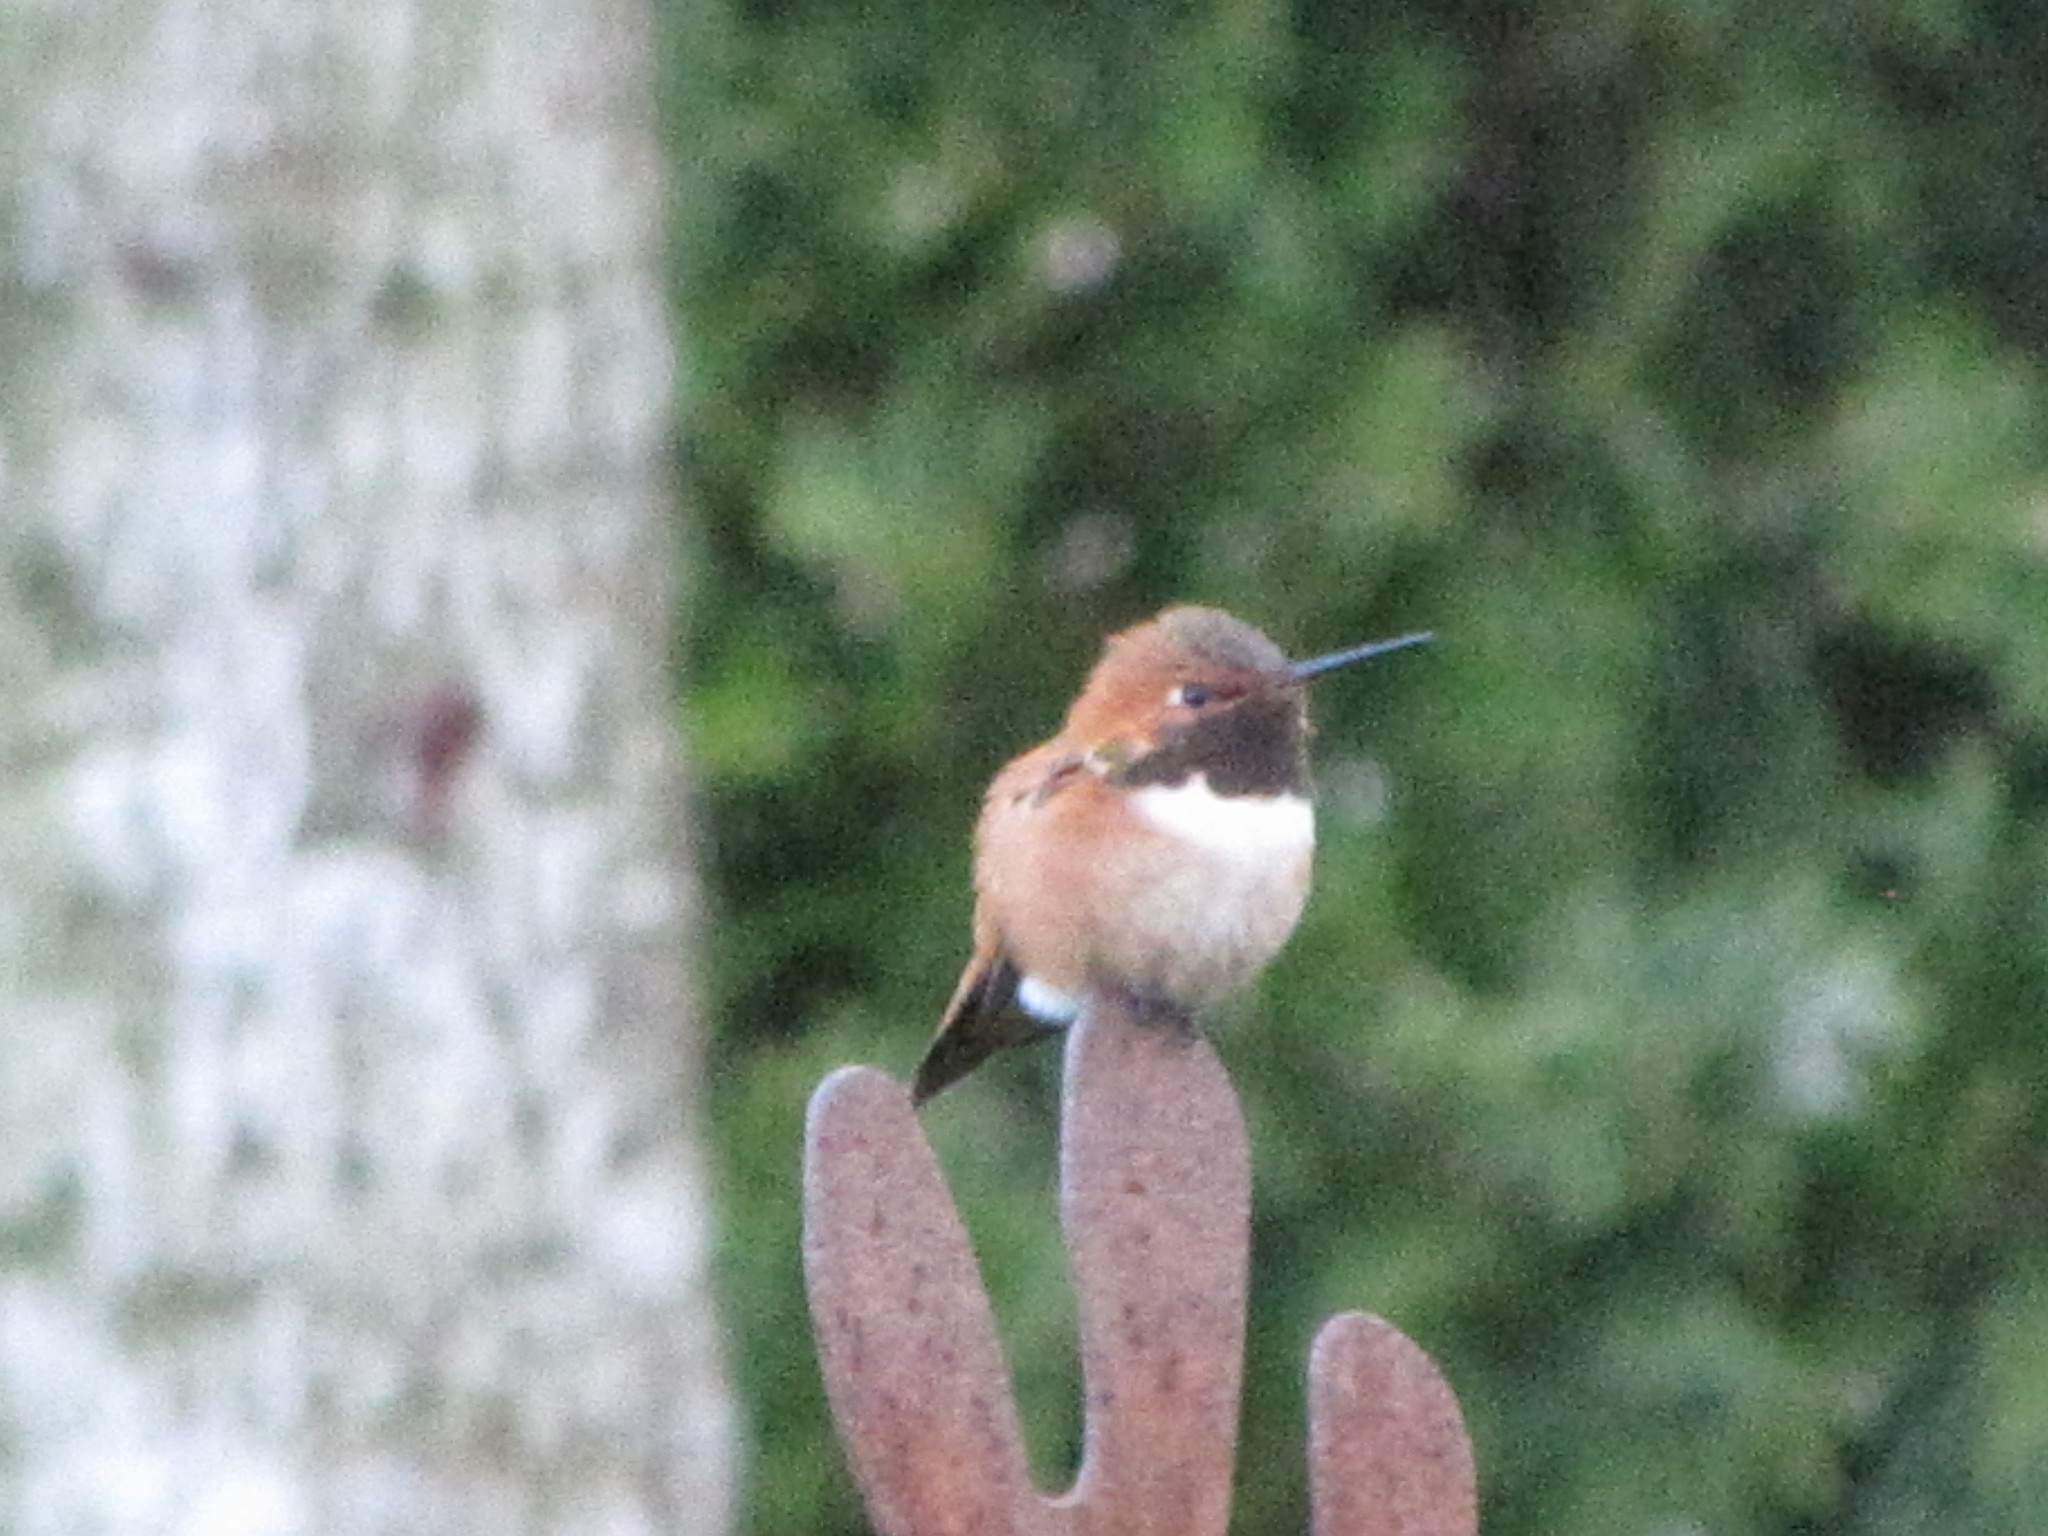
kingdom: Animalia
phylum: Chordata
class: Aves
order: Apodiformes
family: Trochilidae
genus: Selasphorus
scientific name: Selasphorus rufus
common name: Rufous hummingbird
